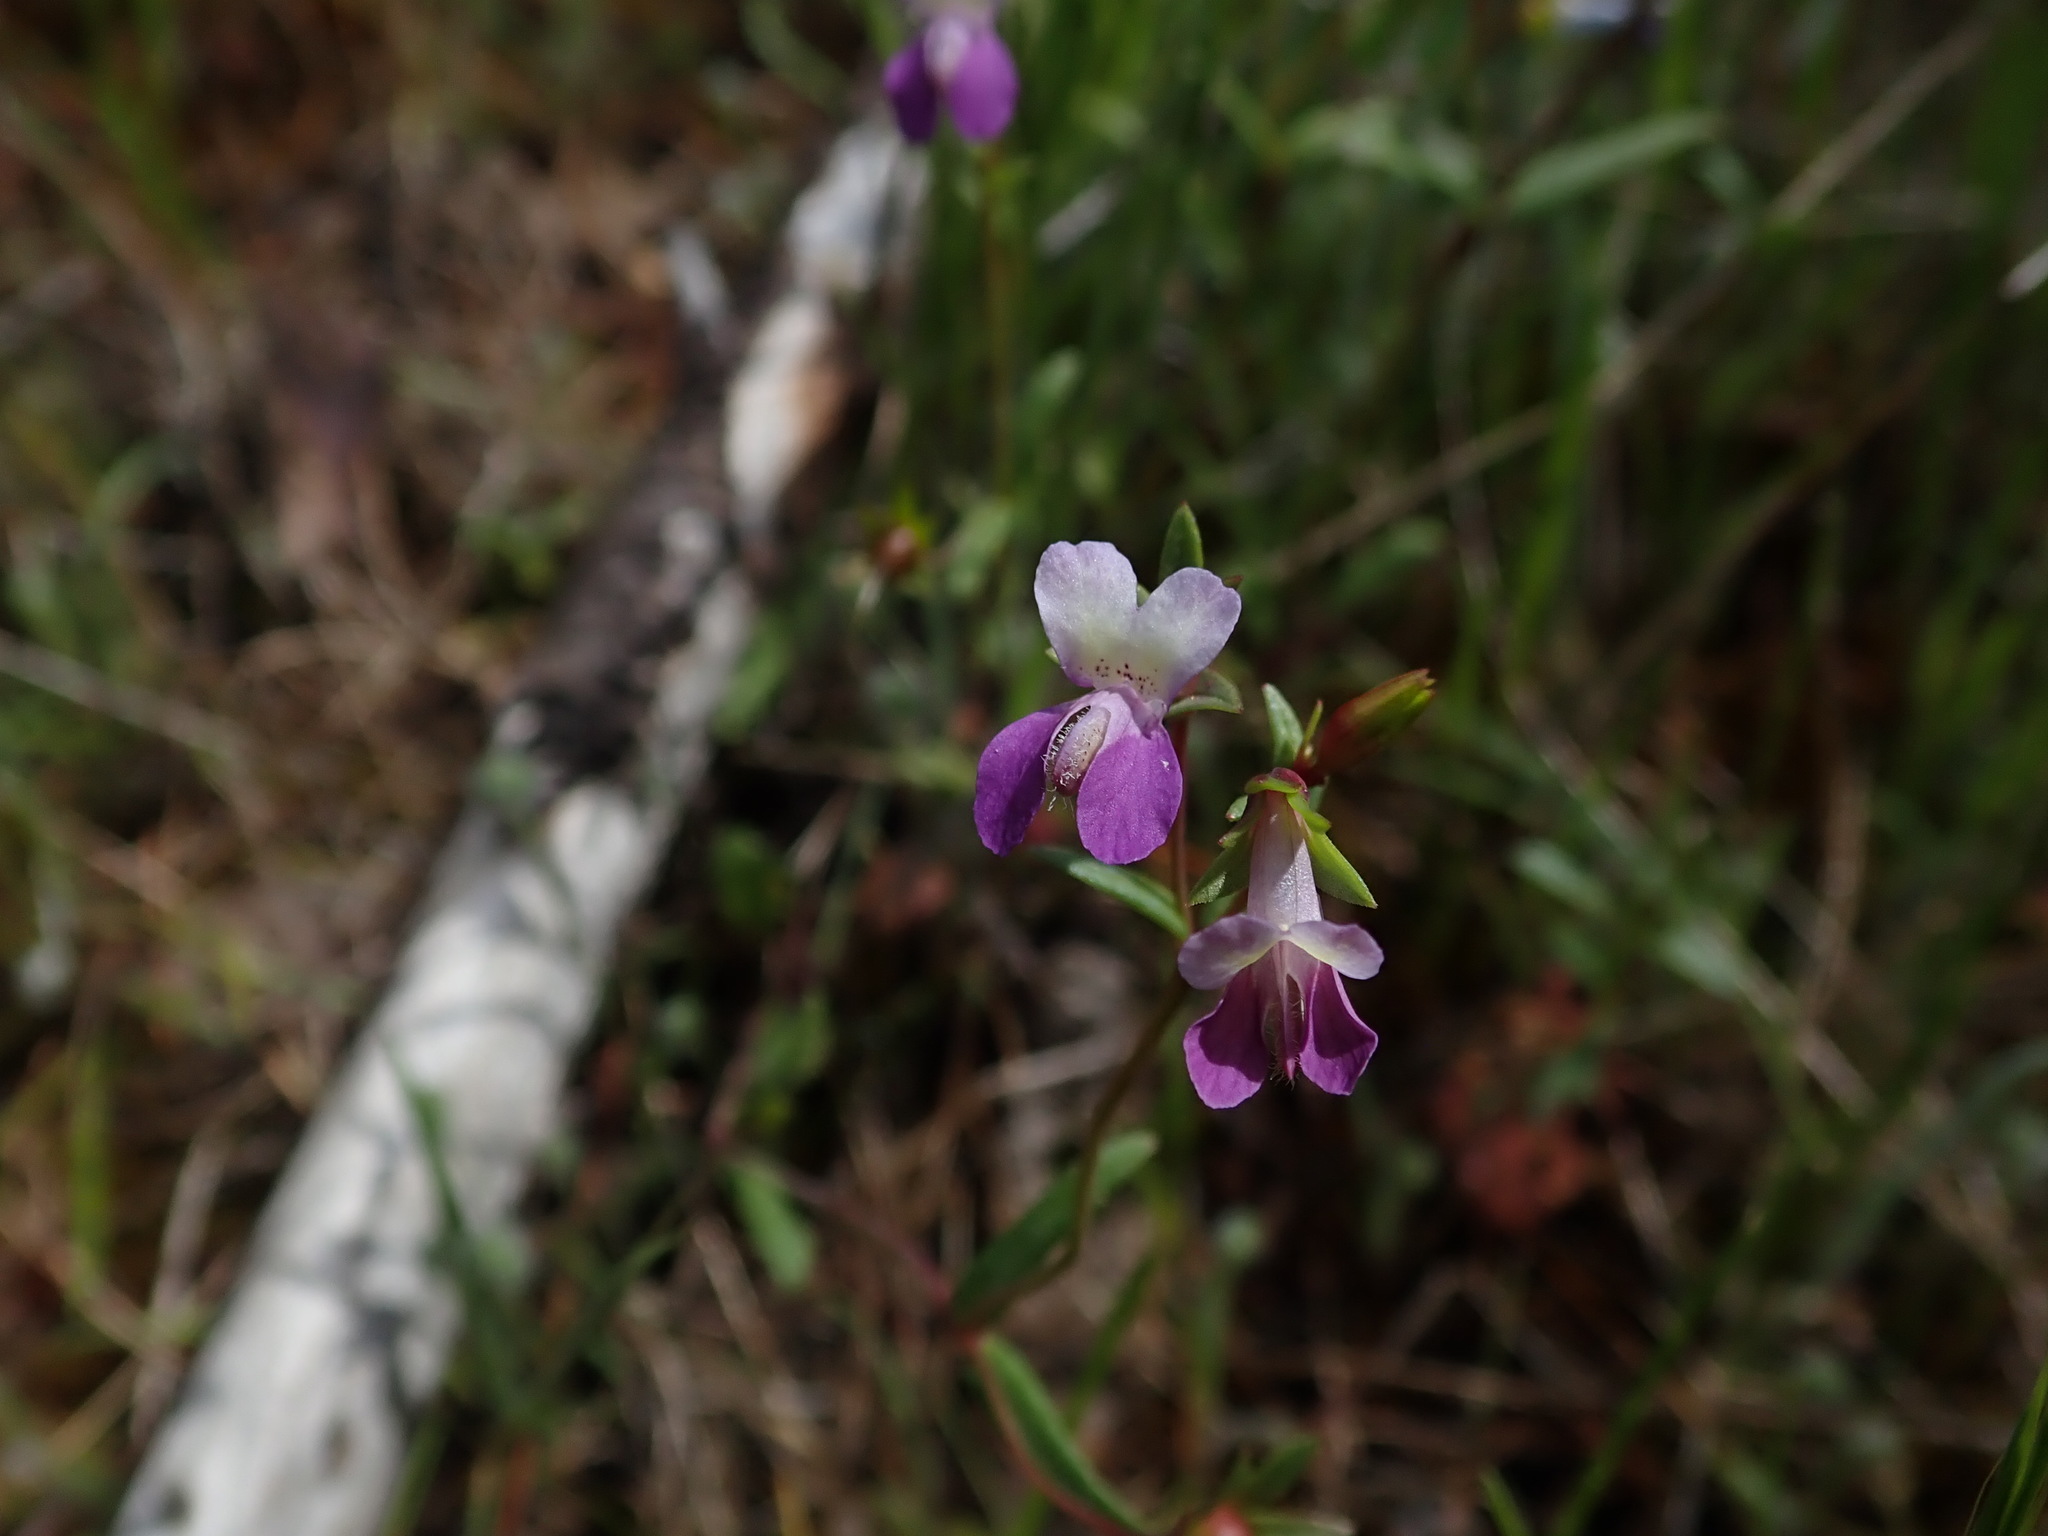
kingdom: Plantae
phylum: Tracheophyta
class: Magnoliopsida
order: Lamiales
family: Plantaginaceae
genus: Collinsia
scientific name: Collinsia sparsiflora
